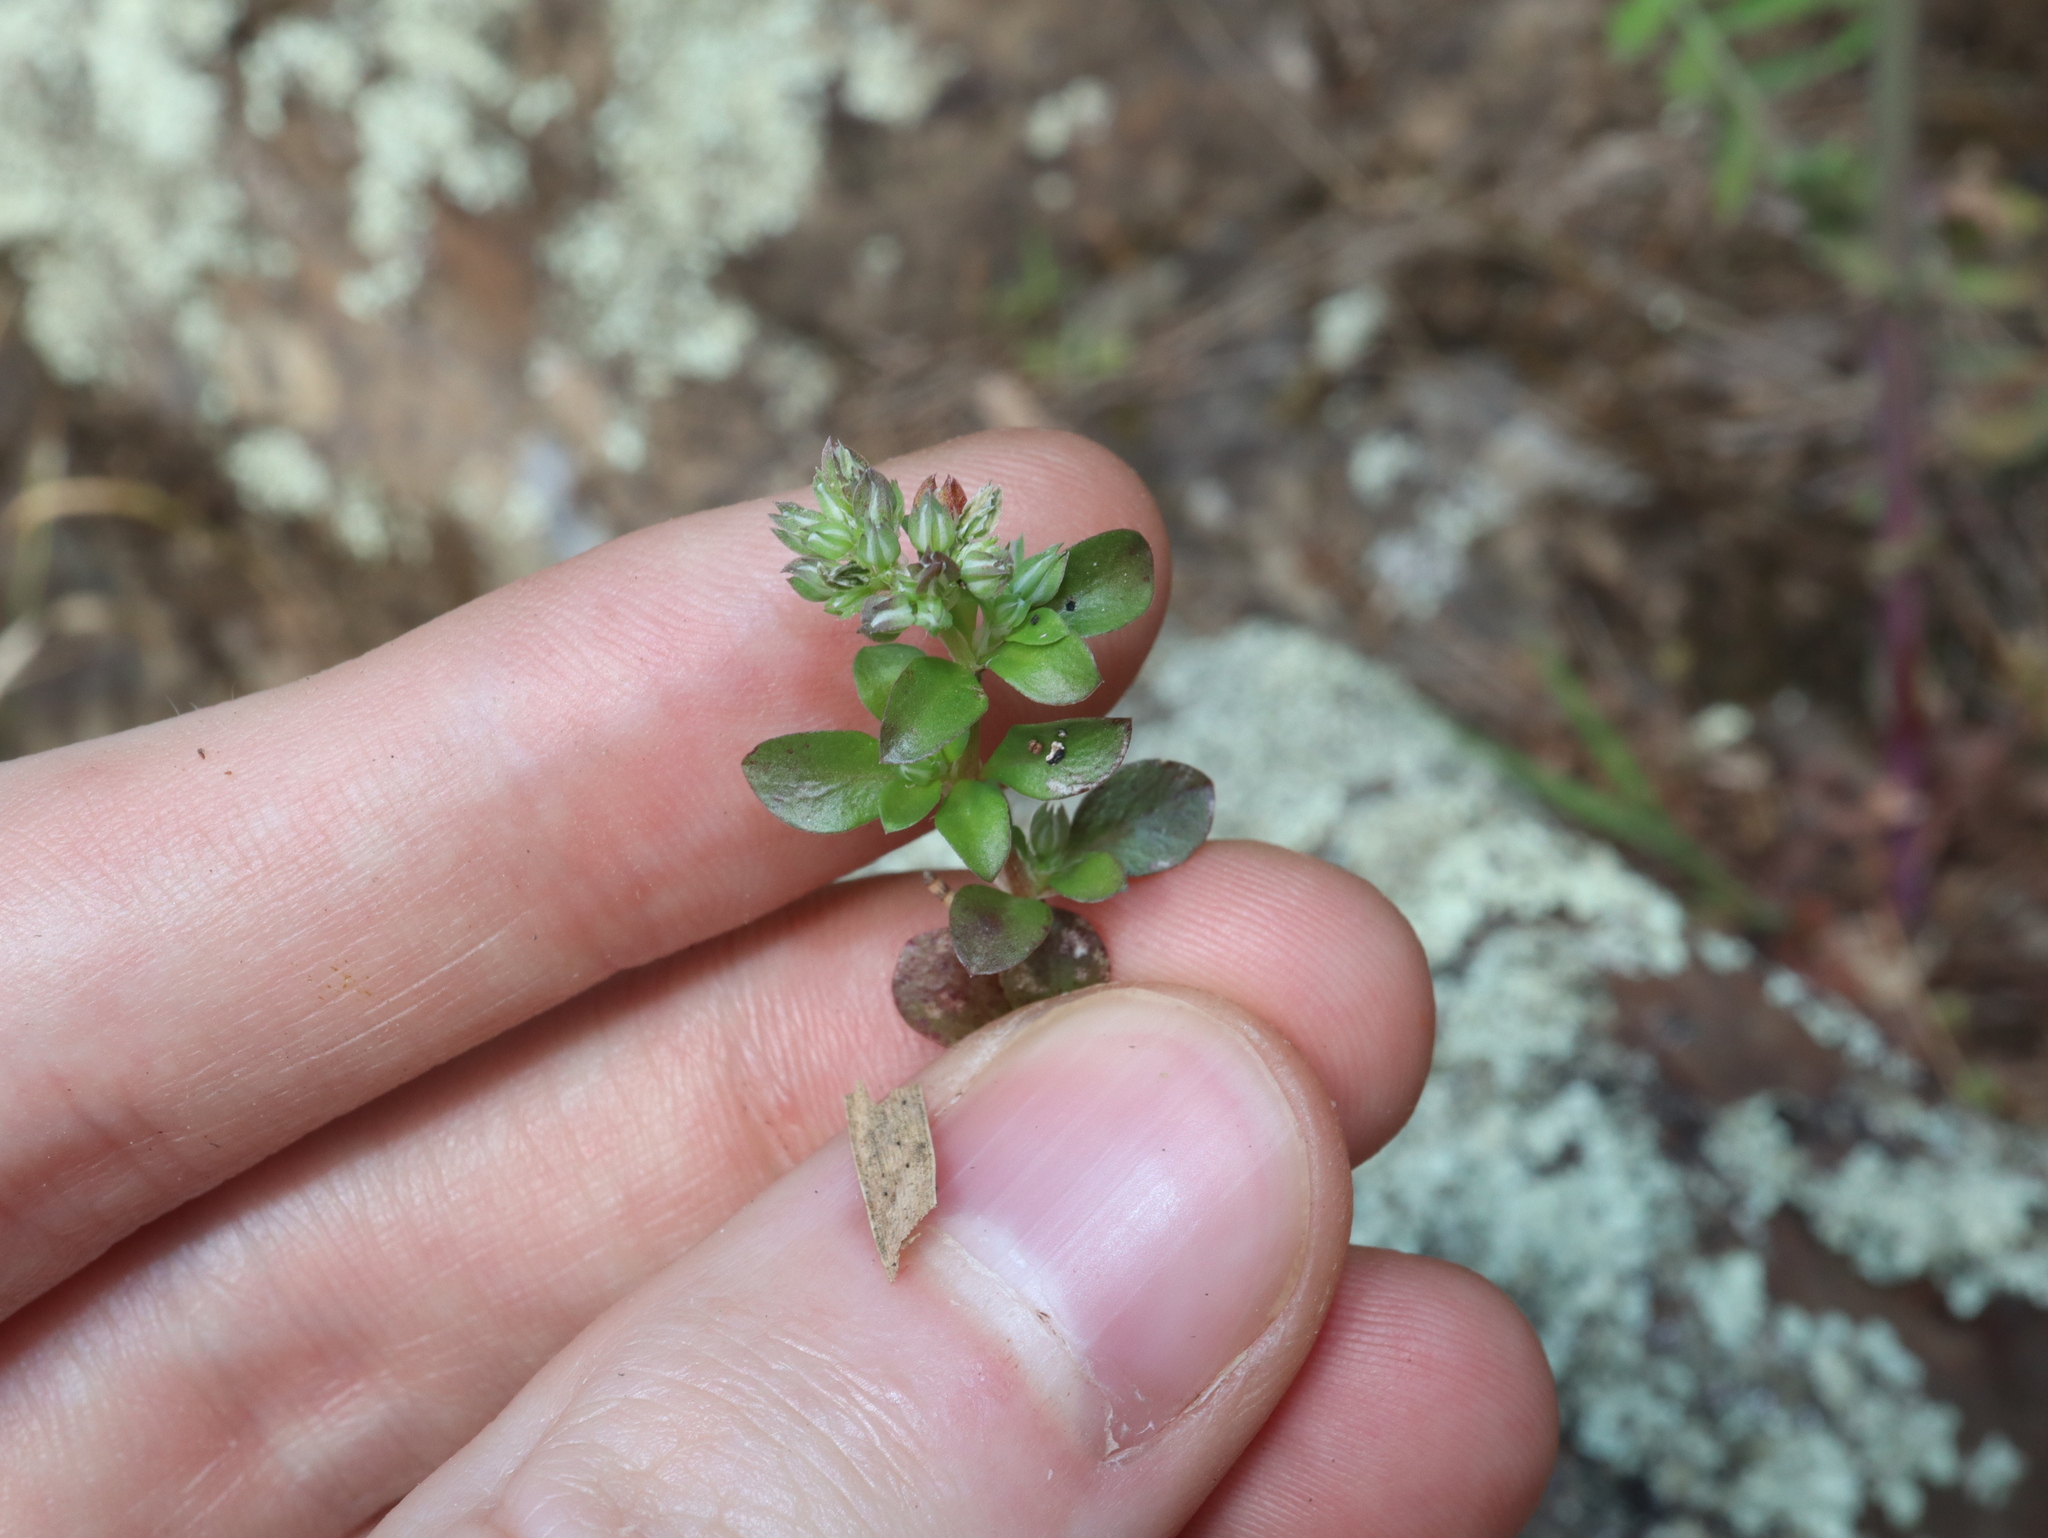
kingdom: Plantae
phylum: Tracheophyta
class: Magnoliopsida
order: Caryophyllales
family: Caryophyllaceae
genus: Polycarpon
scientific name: Polycarpon tetraphyllum
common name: Four-leaved all-seed
